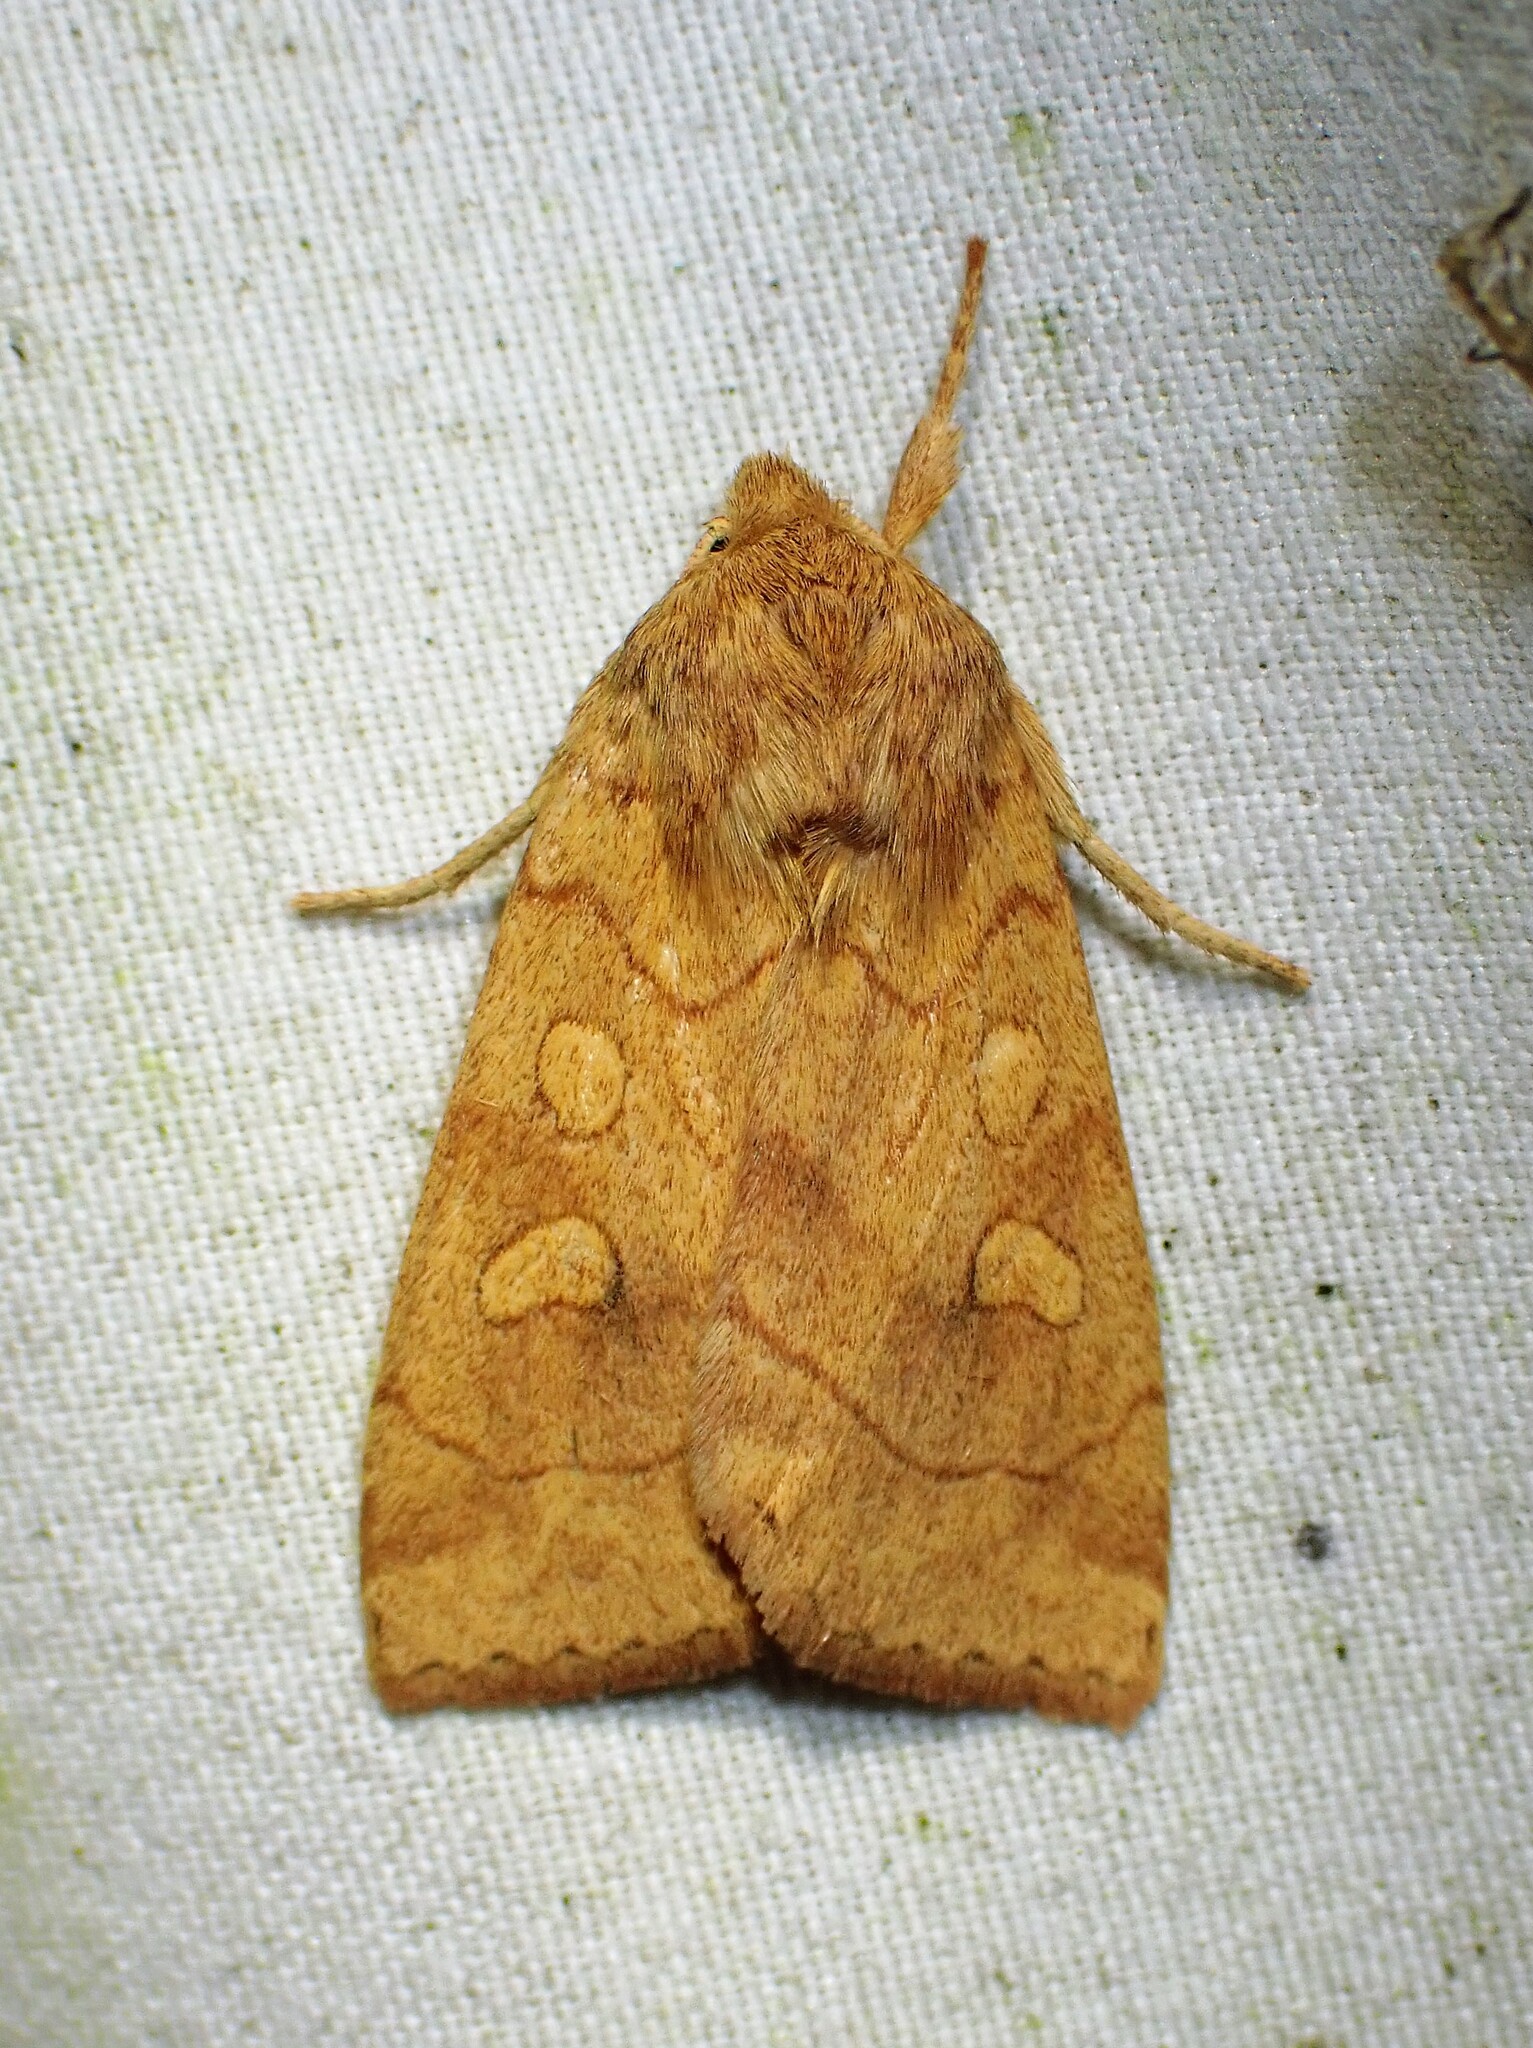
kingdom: Animalia
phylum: Arthropoda
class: Insecta
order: Lepidoptera
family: Noctuidae
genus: Enargia
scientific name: Enargia decolor
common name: Aspen twoleaf tier moth
